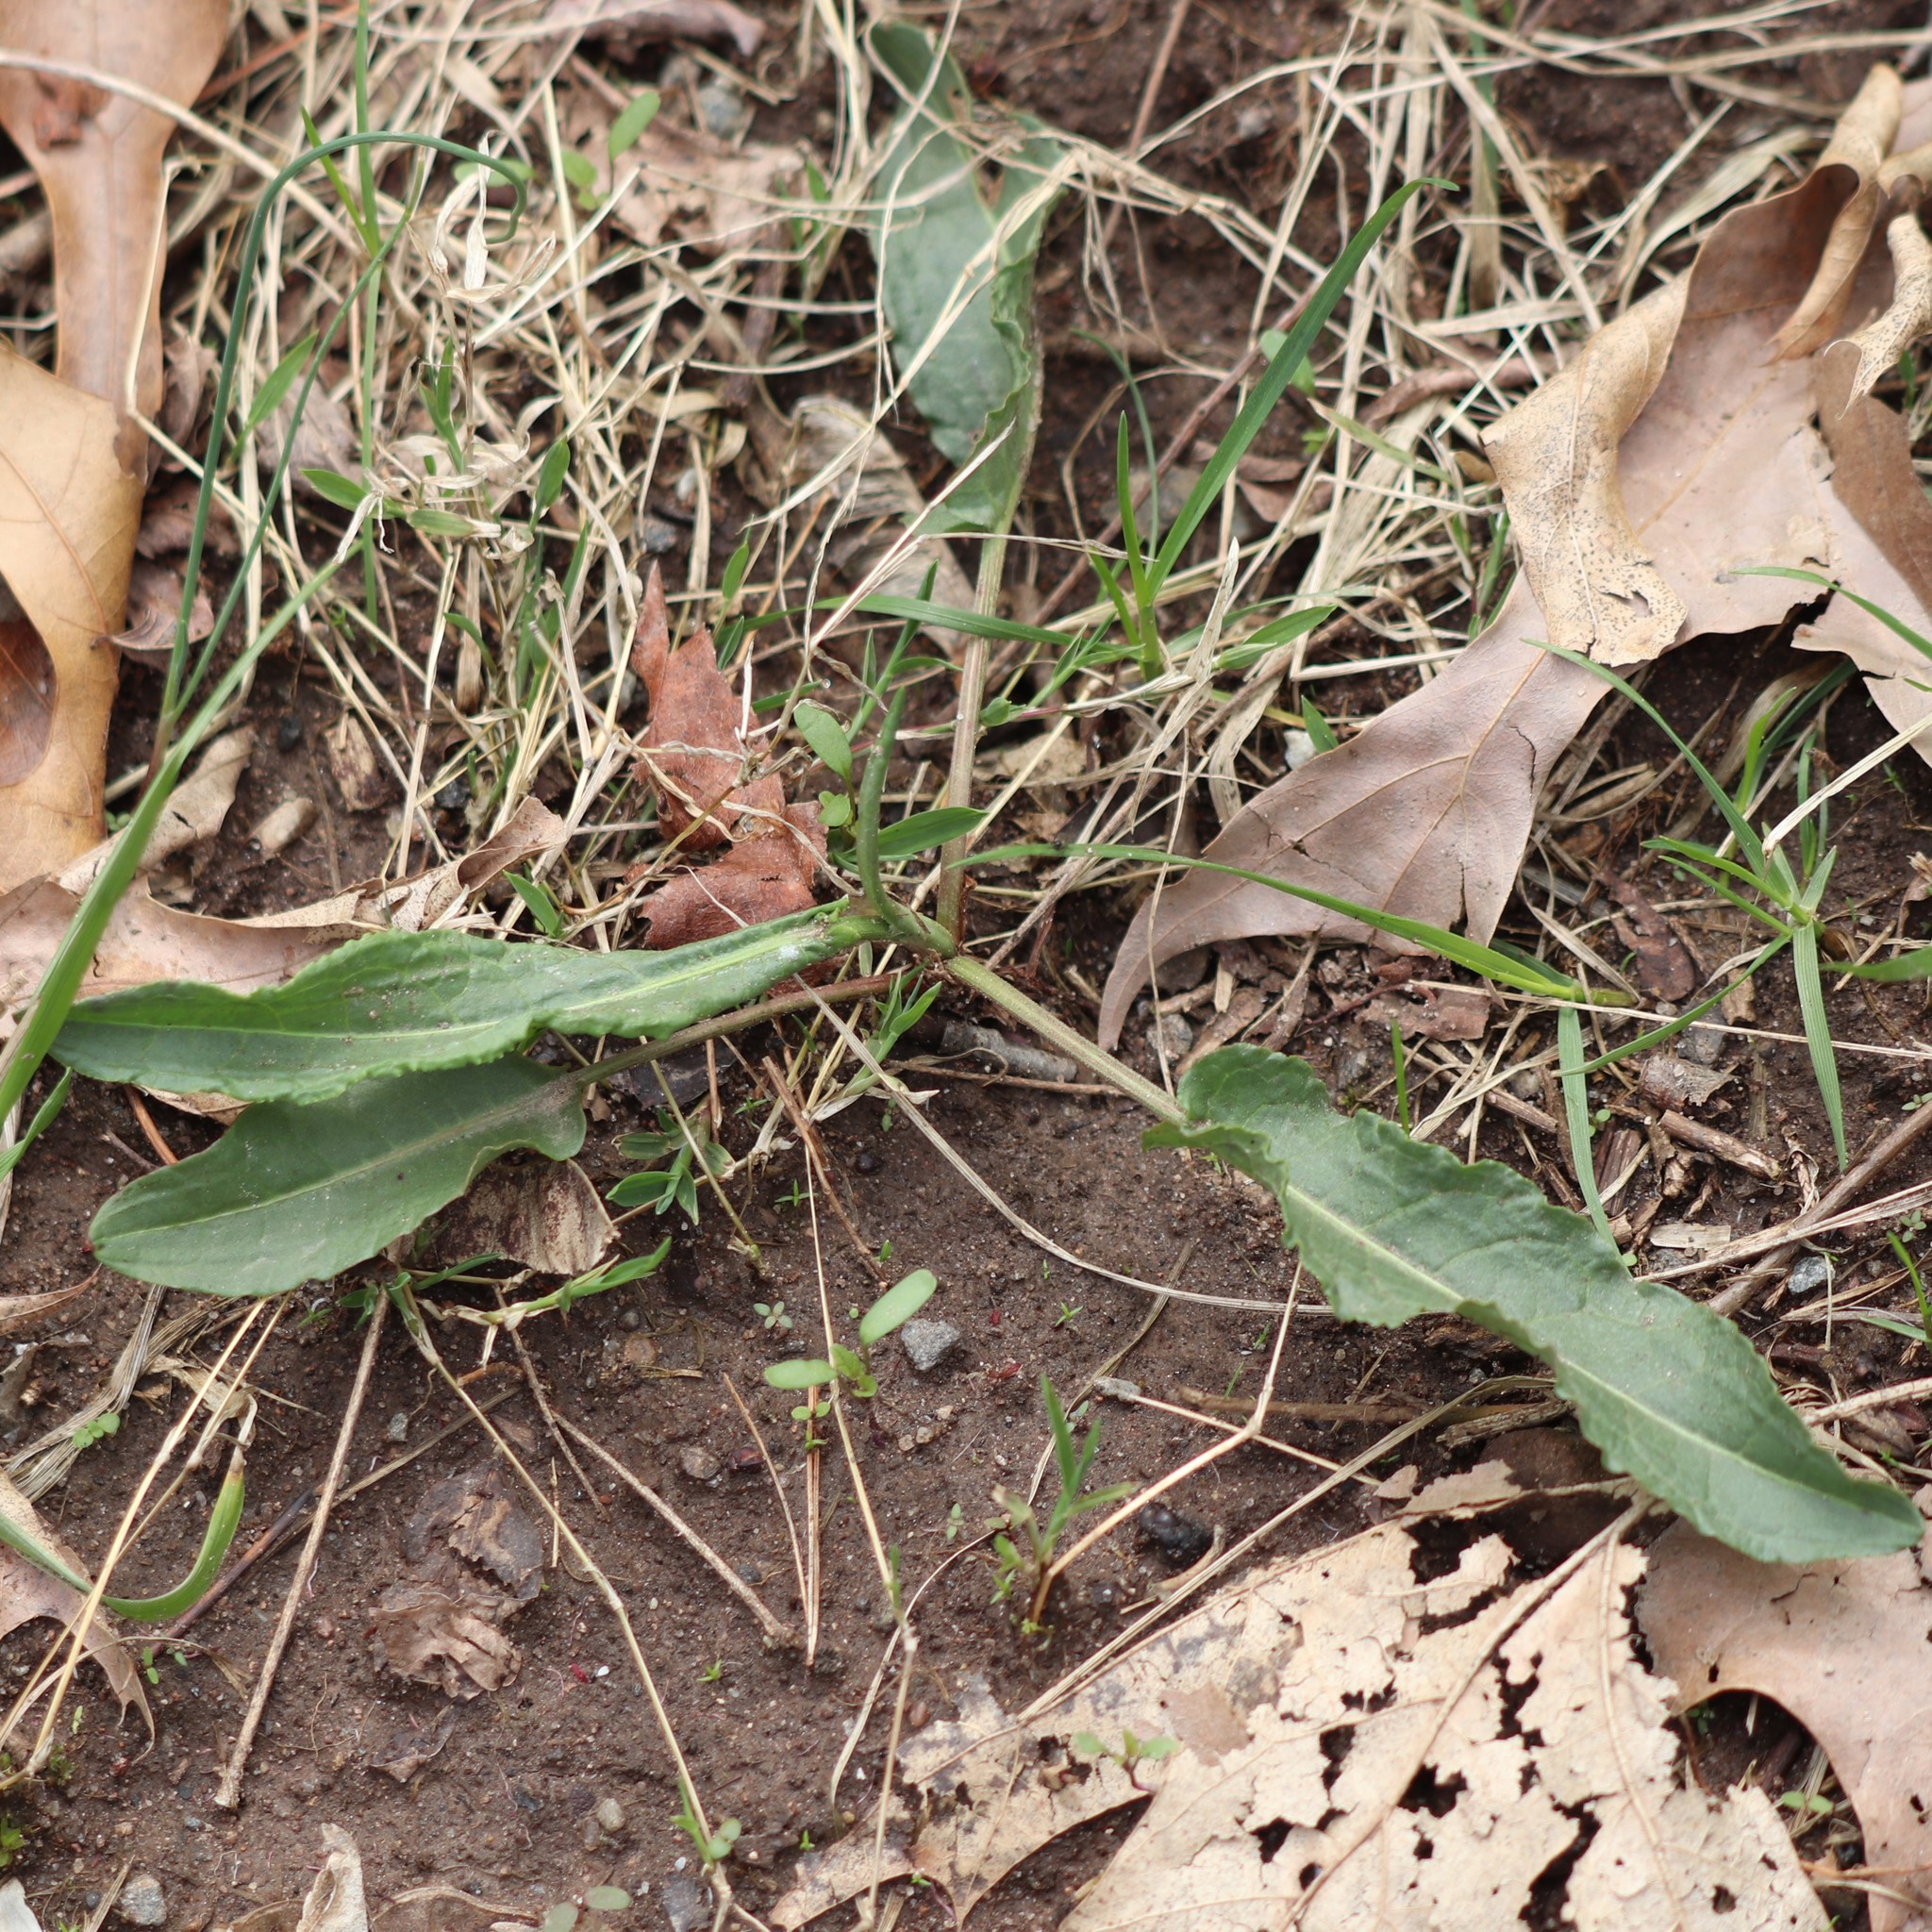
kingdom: Plantae
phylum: Tracheophyta
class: Magnoliopsida
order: Caryophyllales
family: Polygonaceae
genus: Rumex
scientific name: Rumex crispus
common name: Curled dock
